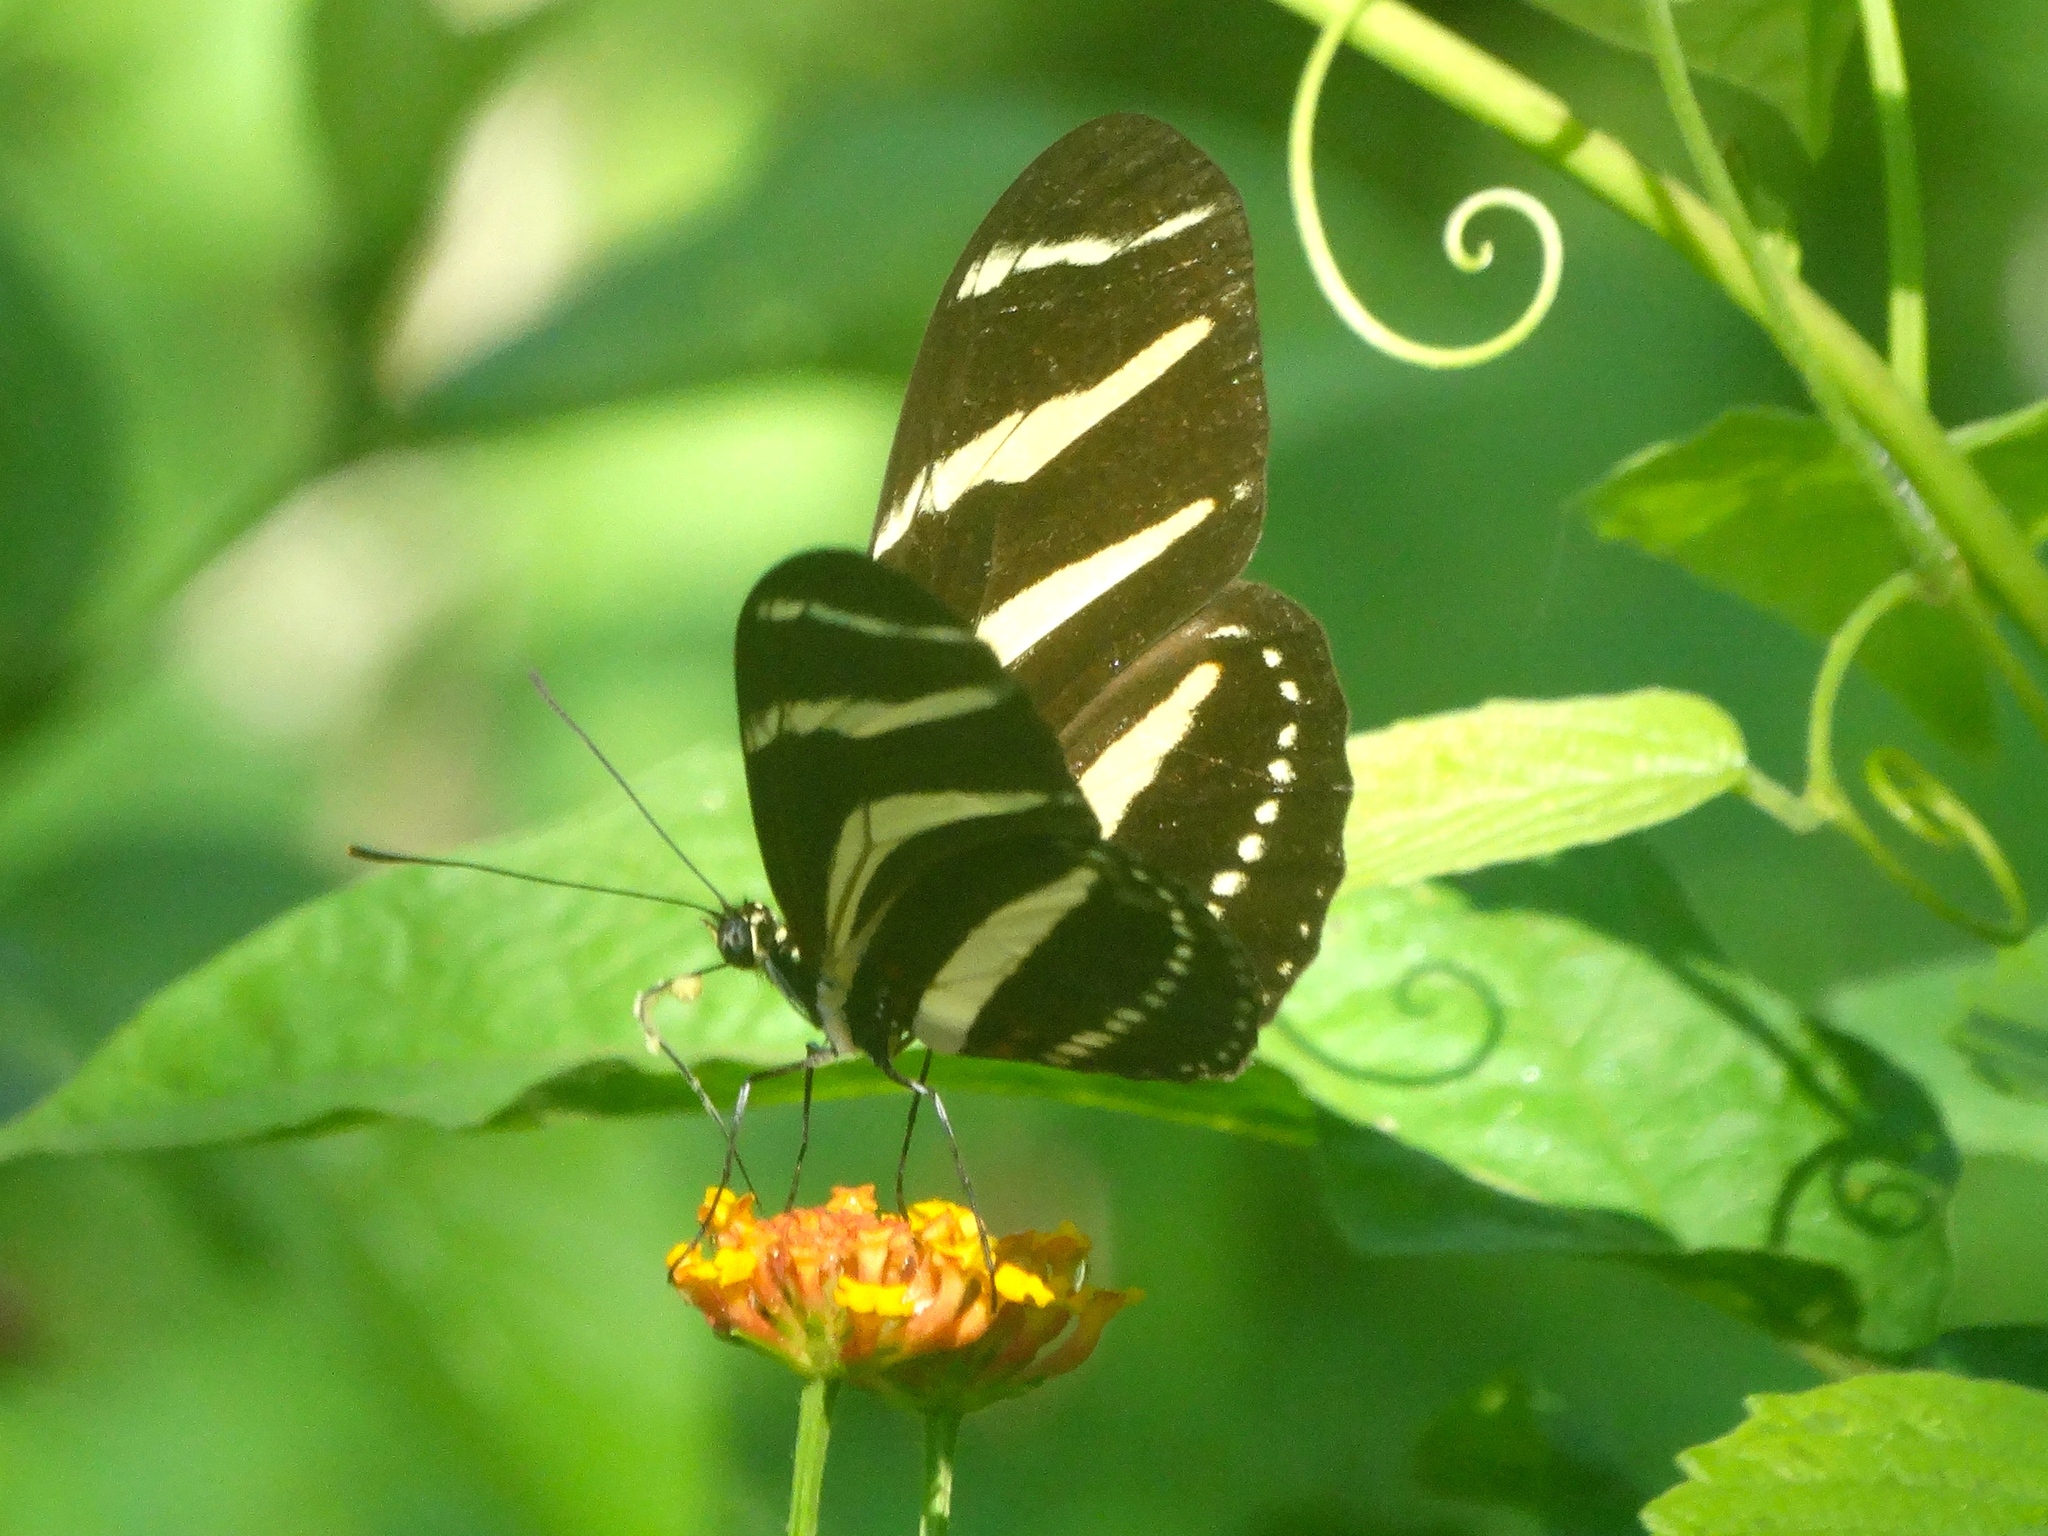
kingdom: Animalia
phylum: Arthropoda
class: Insecta
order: Lepidoptera
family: Nymphalidae
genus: Heliconius
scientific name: Heliconius charithonia
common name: Zebra long wing
